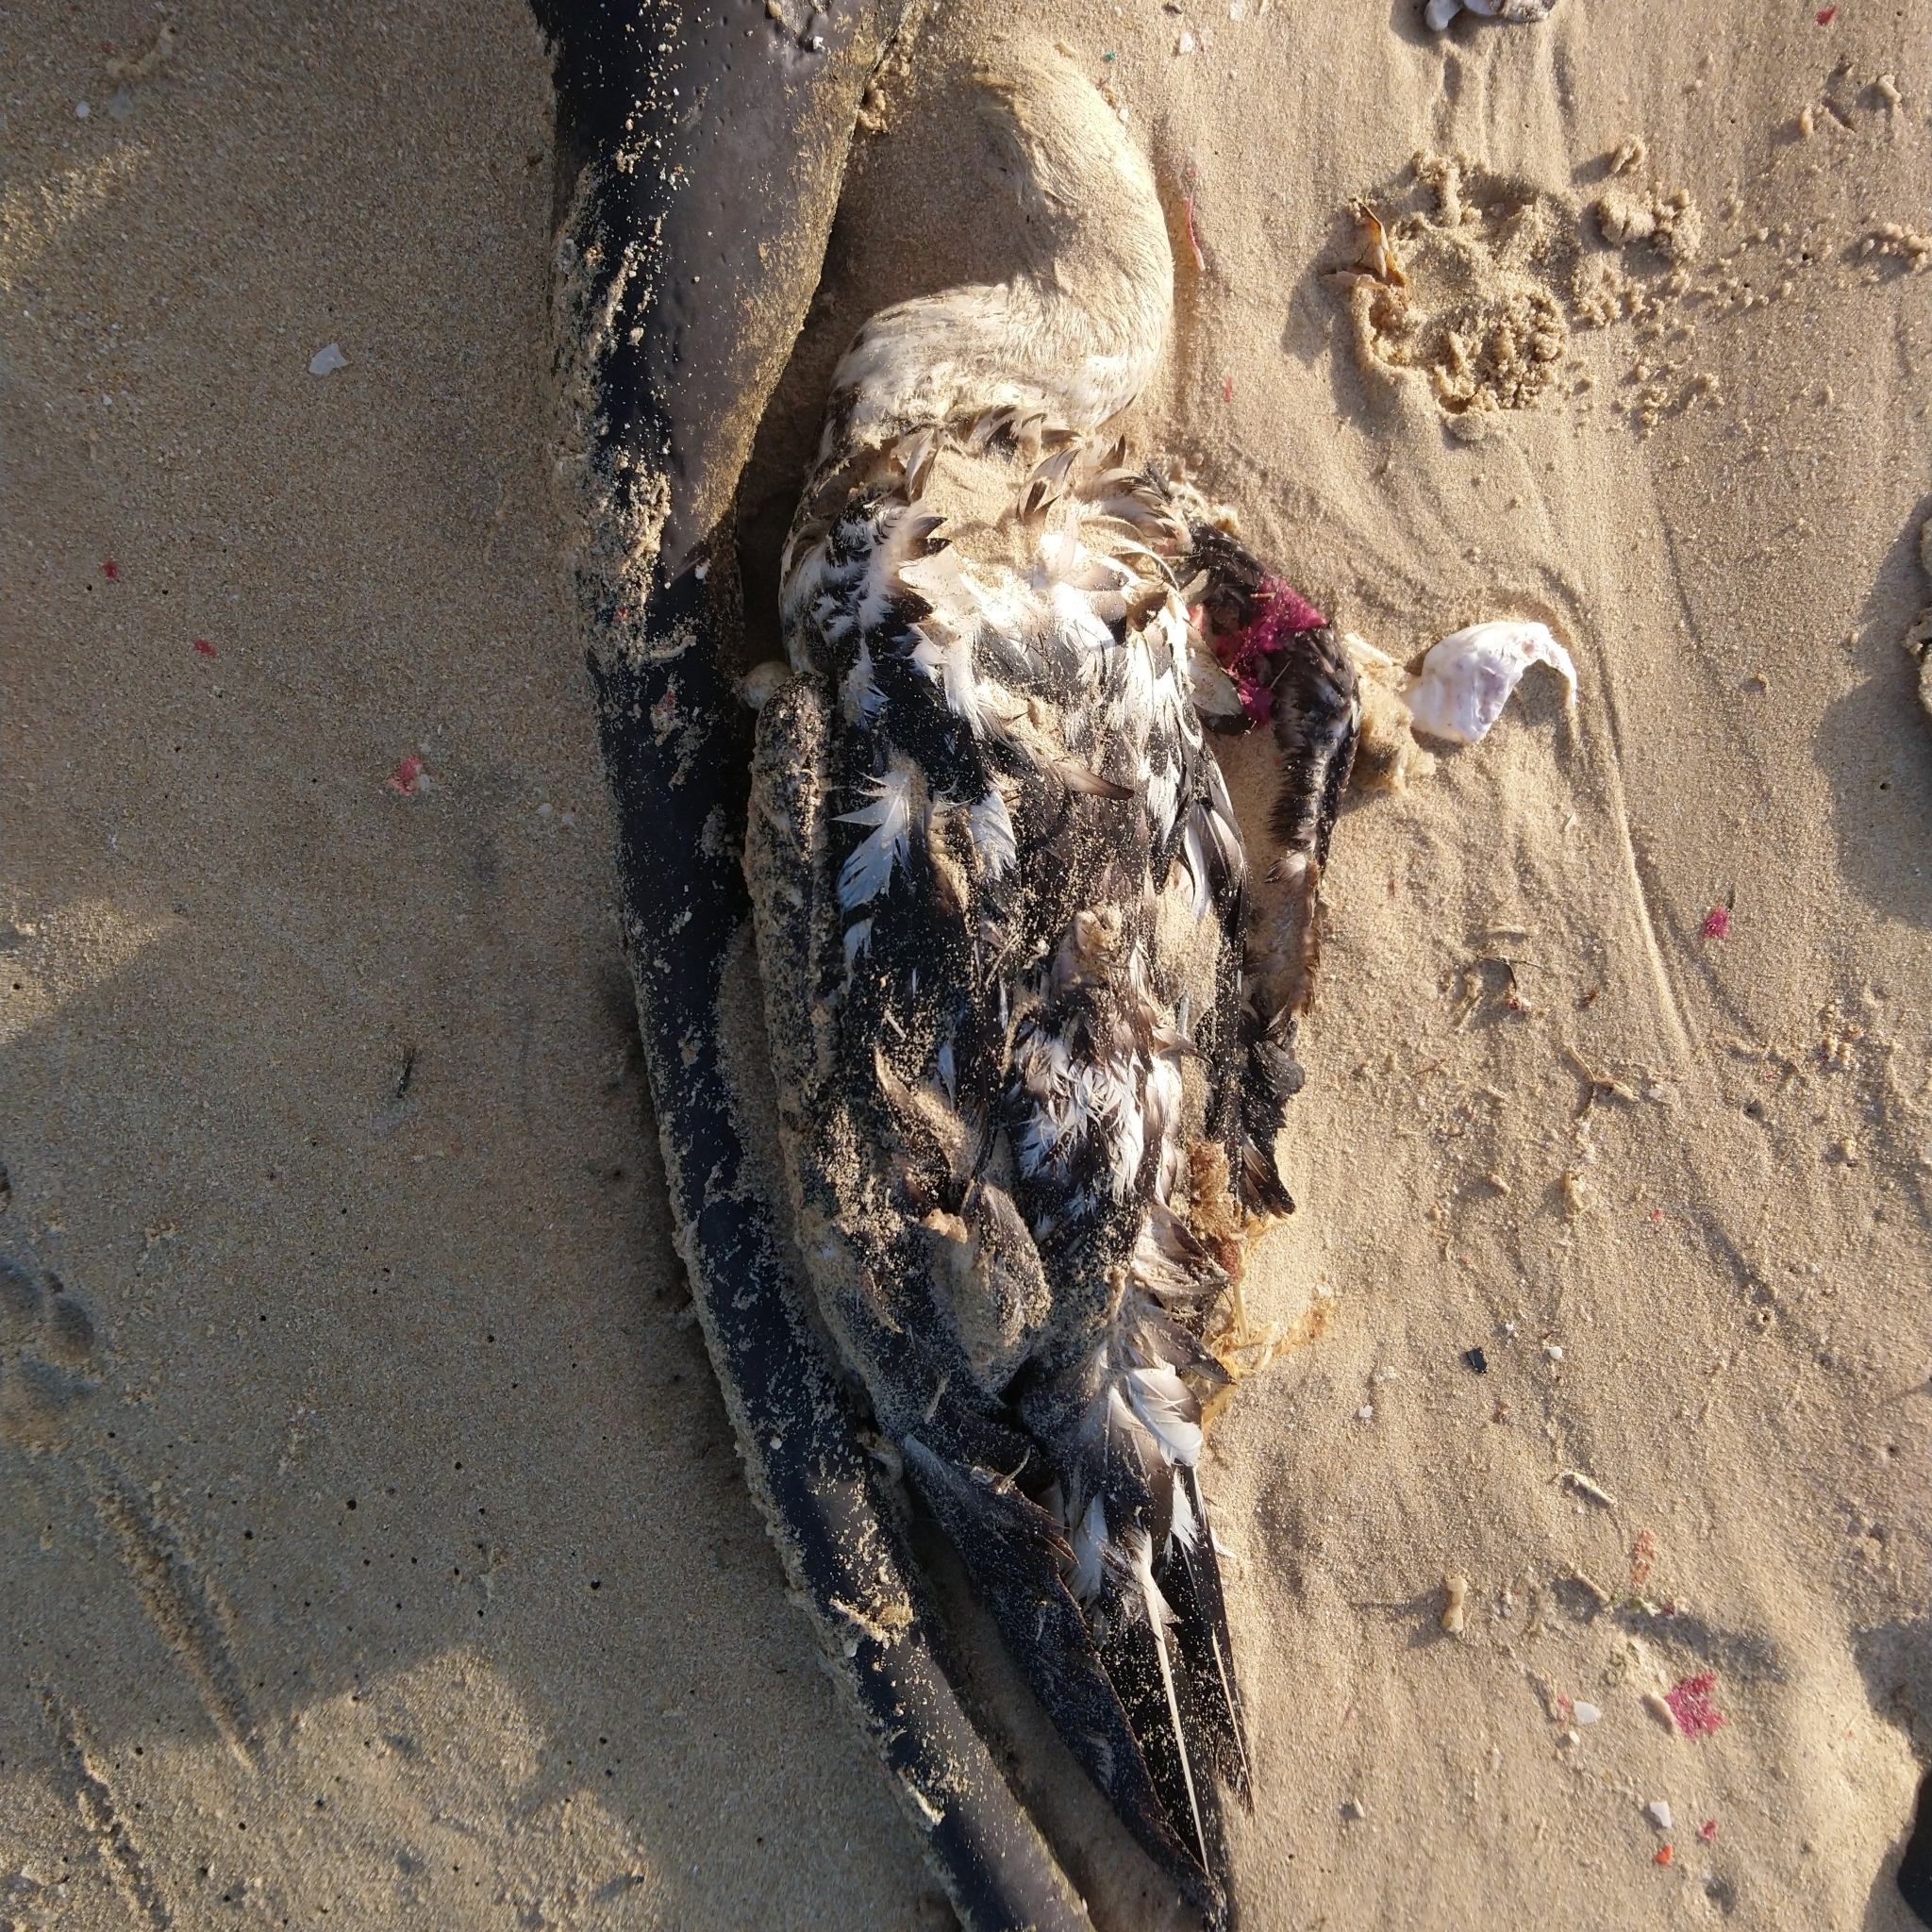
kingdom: Animalia
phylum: Chordata
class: Aves
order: Suliformes
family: Sulidae
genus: Morus
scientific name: Morus capensis
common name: Cape gannet
